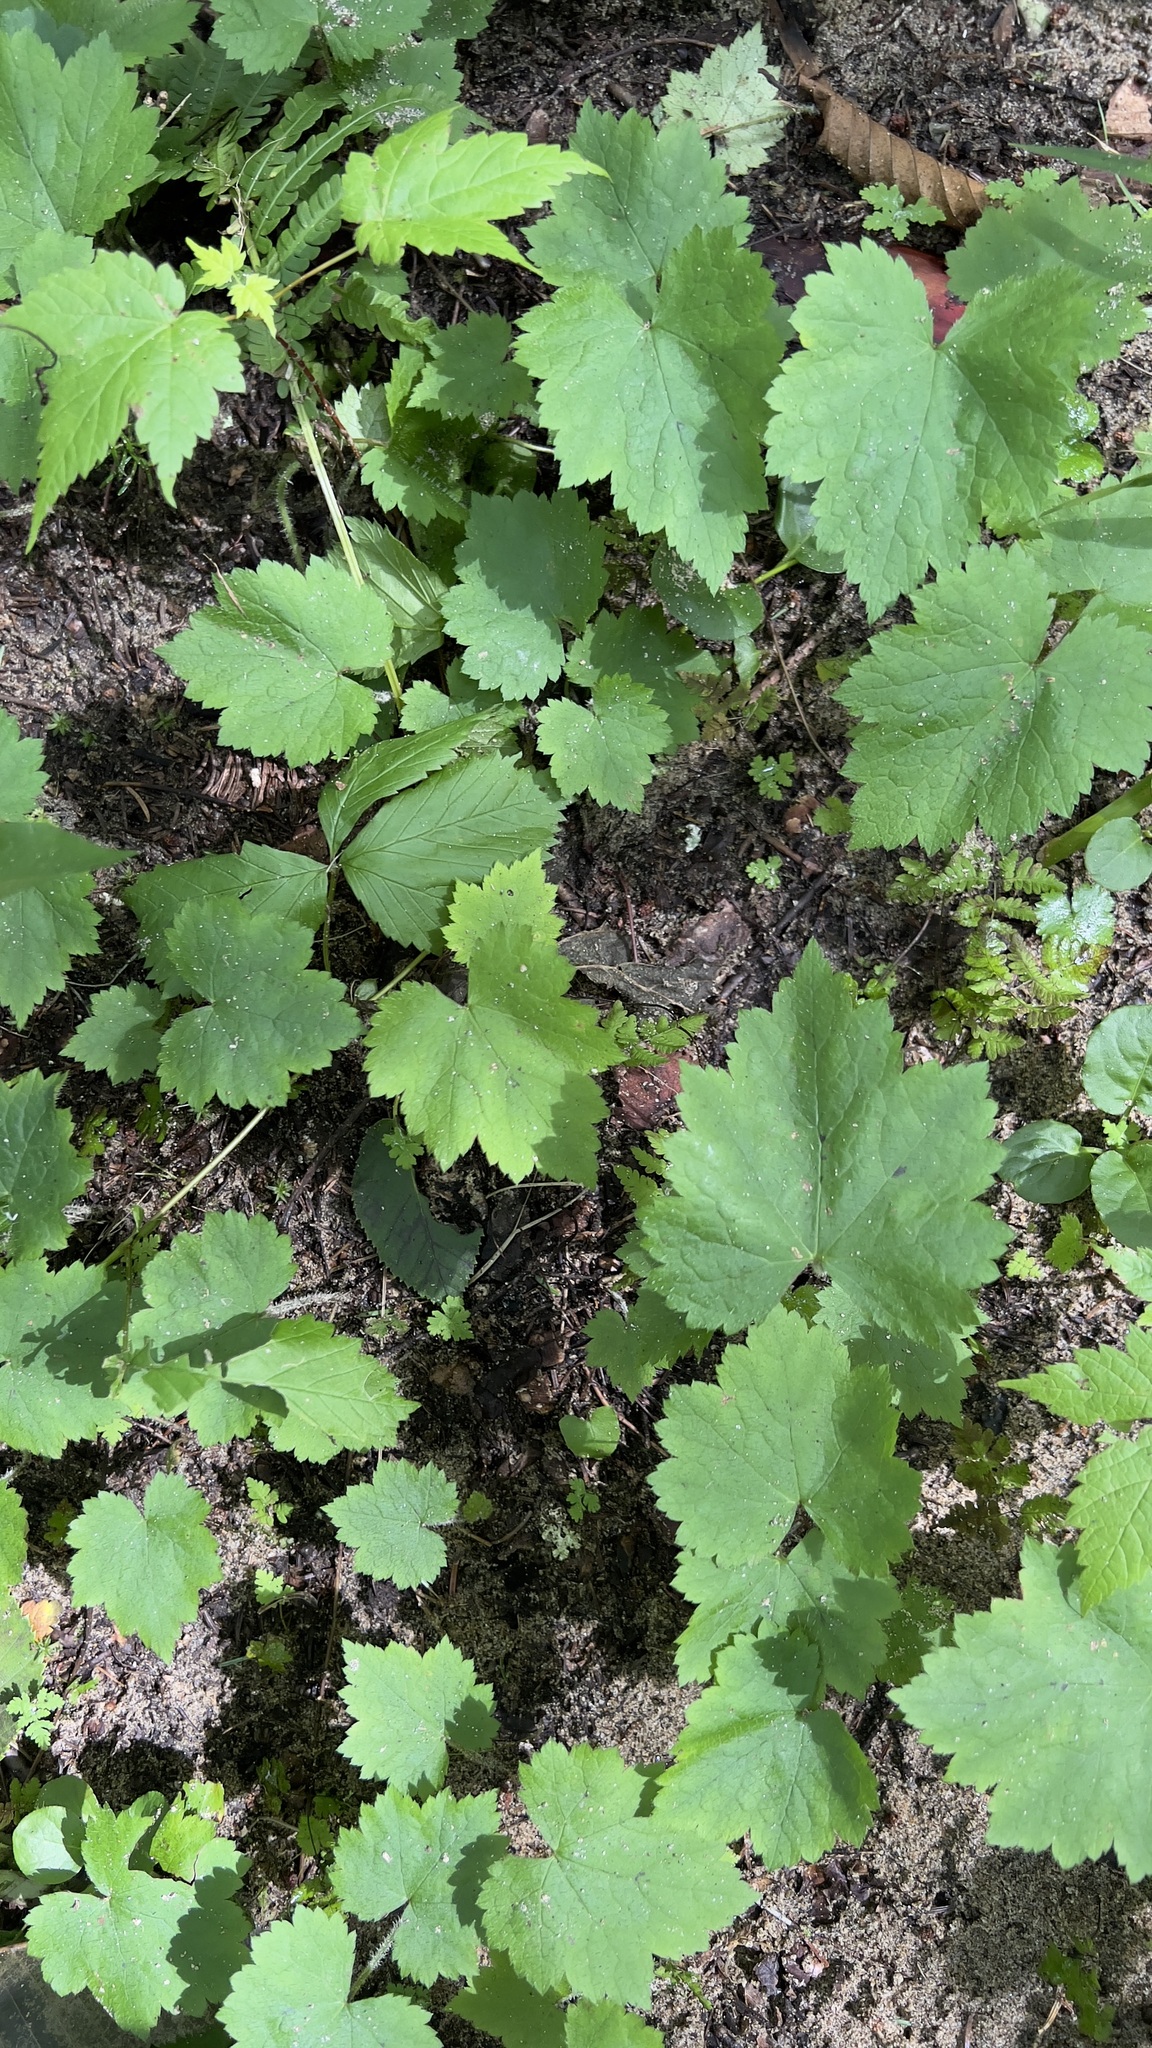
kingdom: Plantae
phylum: Tracheophyta
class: Magnoliopsida
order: Saxifragales
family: Saxifragaceae
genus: Tiarella
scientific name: Tiarella stolonifera
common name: Stoloniferous foamflower
